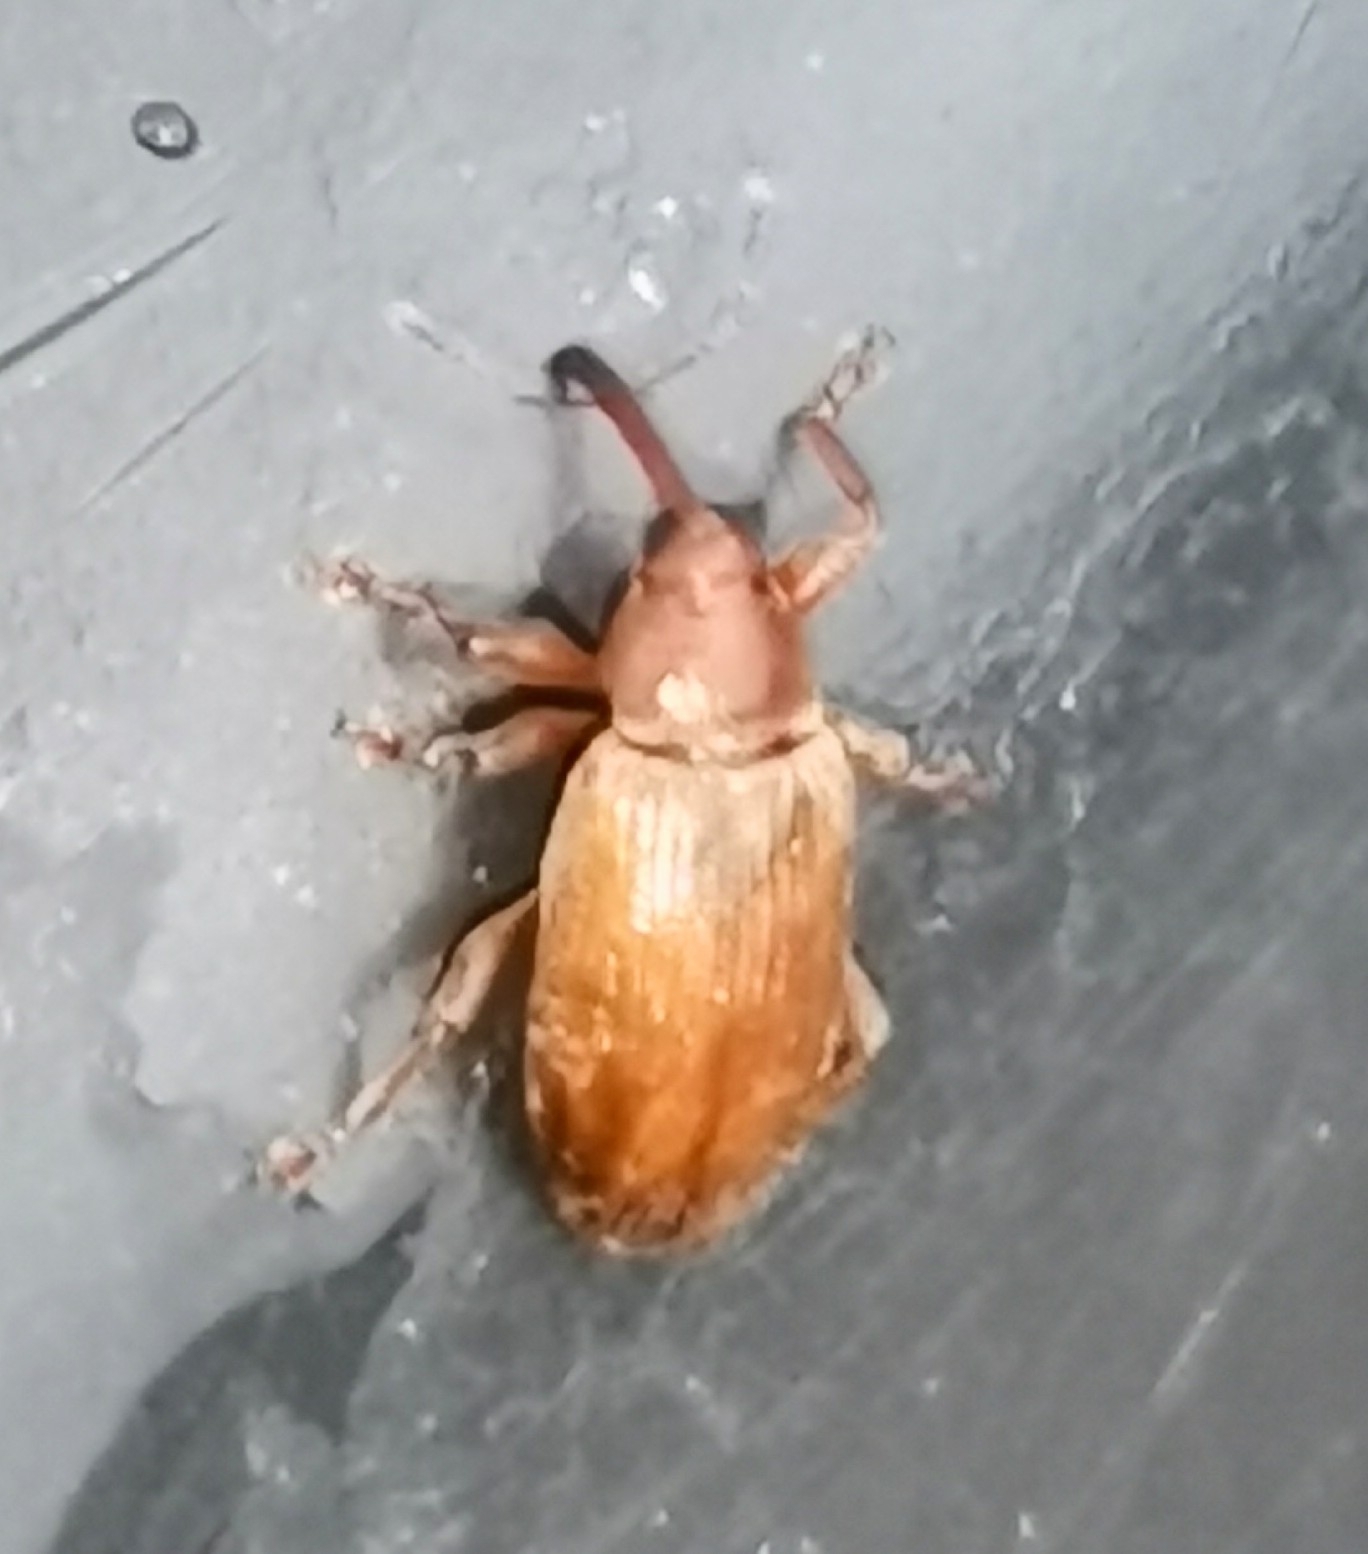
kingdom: Animalia
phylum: Arthropoda
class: Insecta
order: Coleoptera
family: Curculionidae
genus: Dorytomus
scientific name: Dorytomus tortrix
